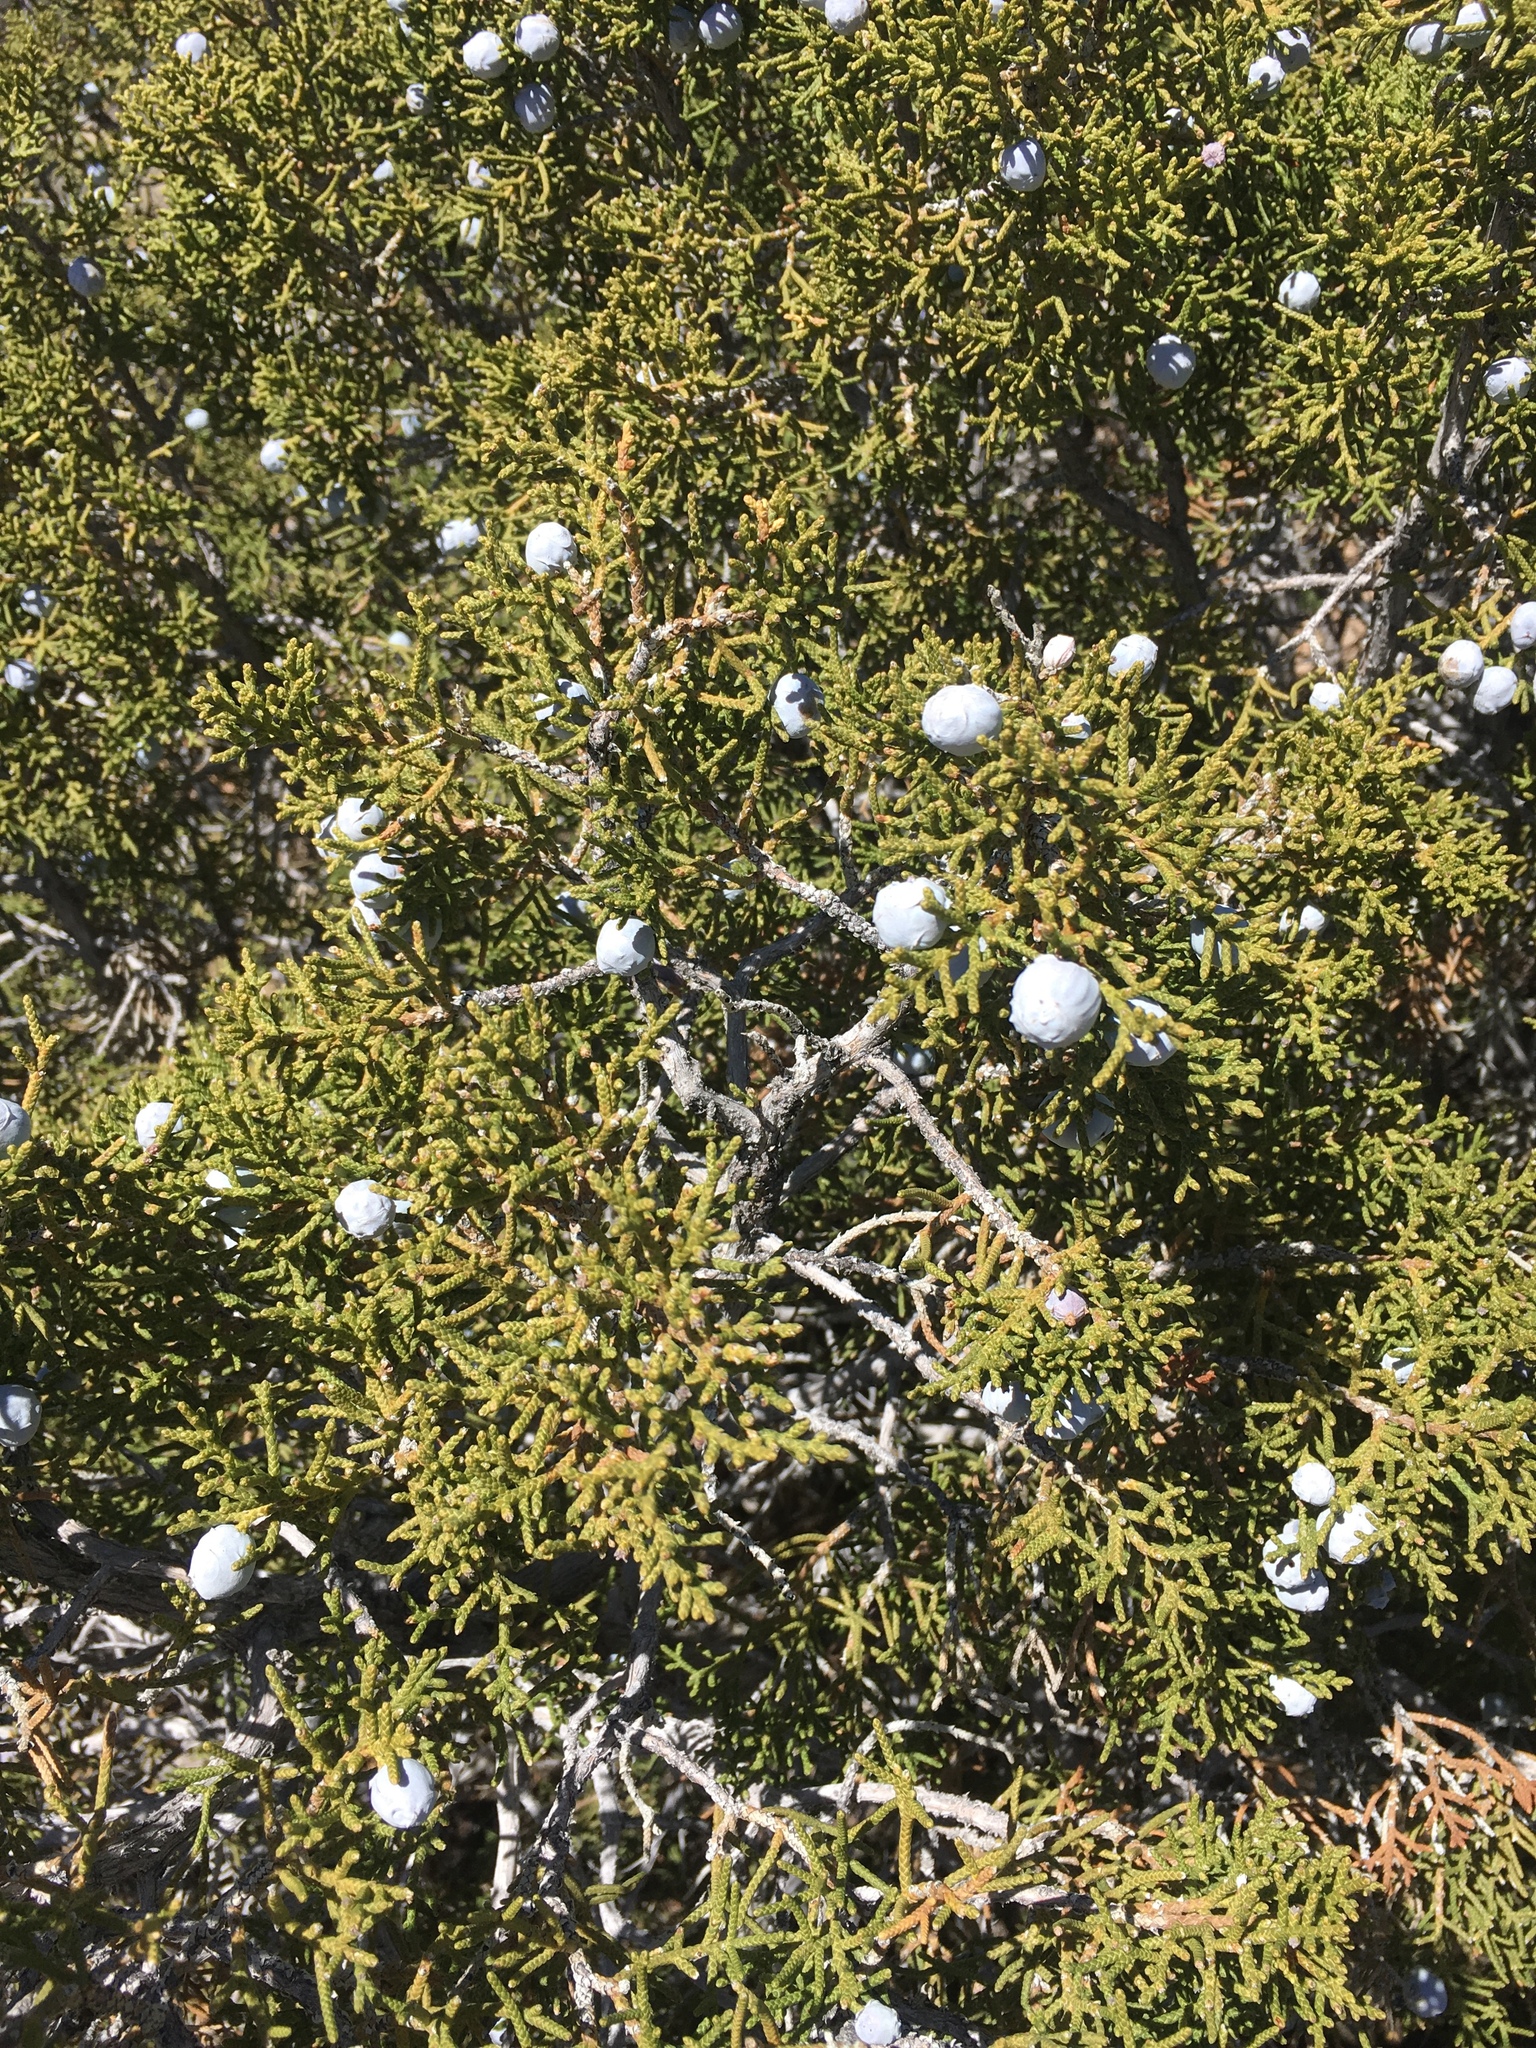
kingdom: Plantae
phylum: Tracheophyta
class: Pinopsida
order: Pinales
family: Cupressaceae
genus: Juniperus
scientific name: Juniperus californica
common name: California juniper
